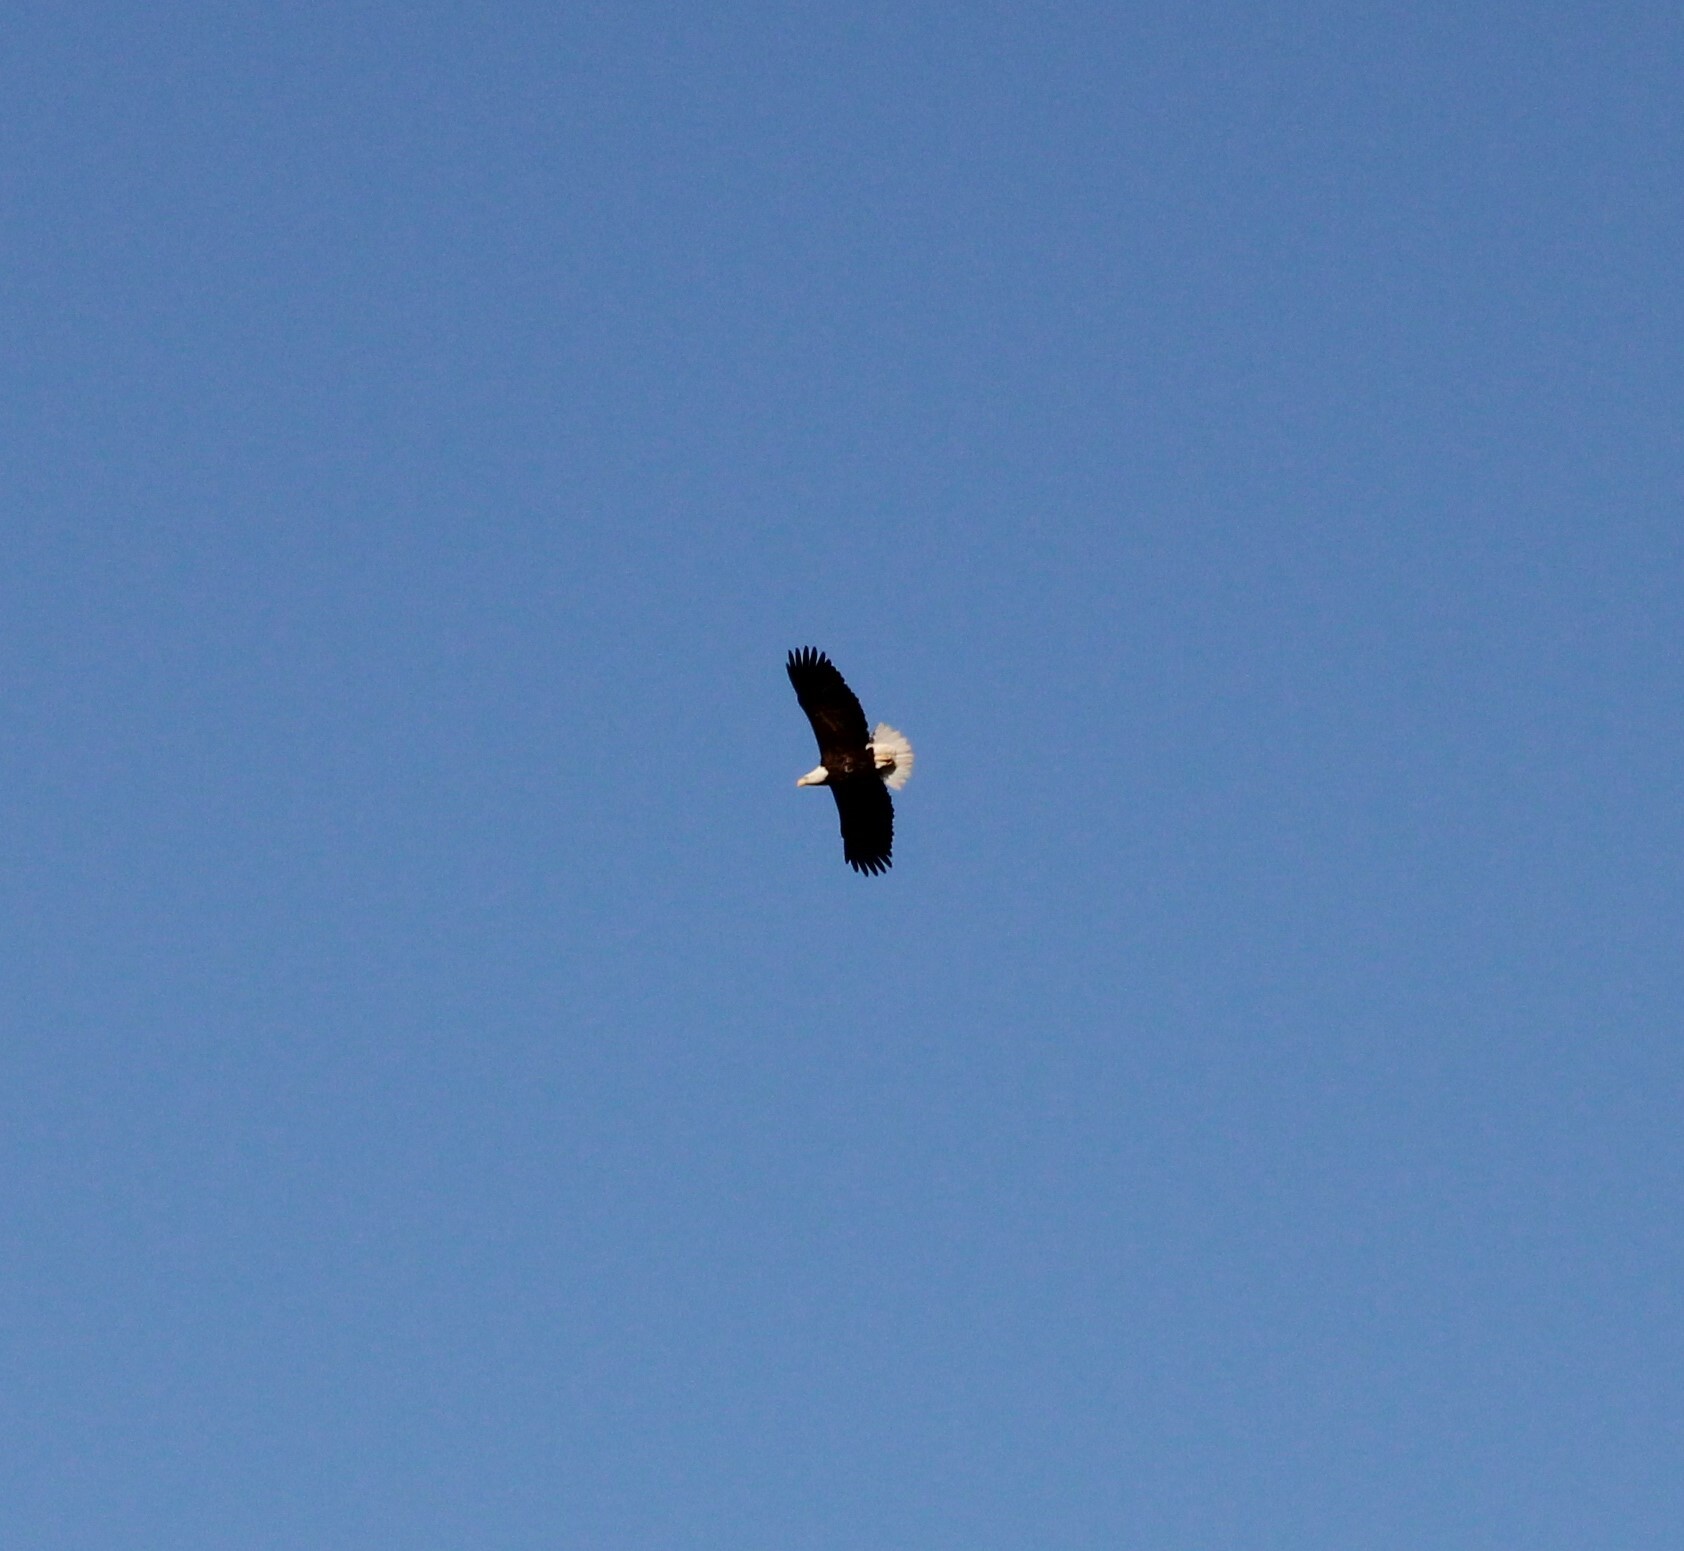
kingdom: Animalia
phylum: Chordata
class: Aves
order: Accipitriformes
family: Accipitridae
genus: Haliaeetus
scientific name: Haliaeetus leucocephalus
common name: Bald eagle
